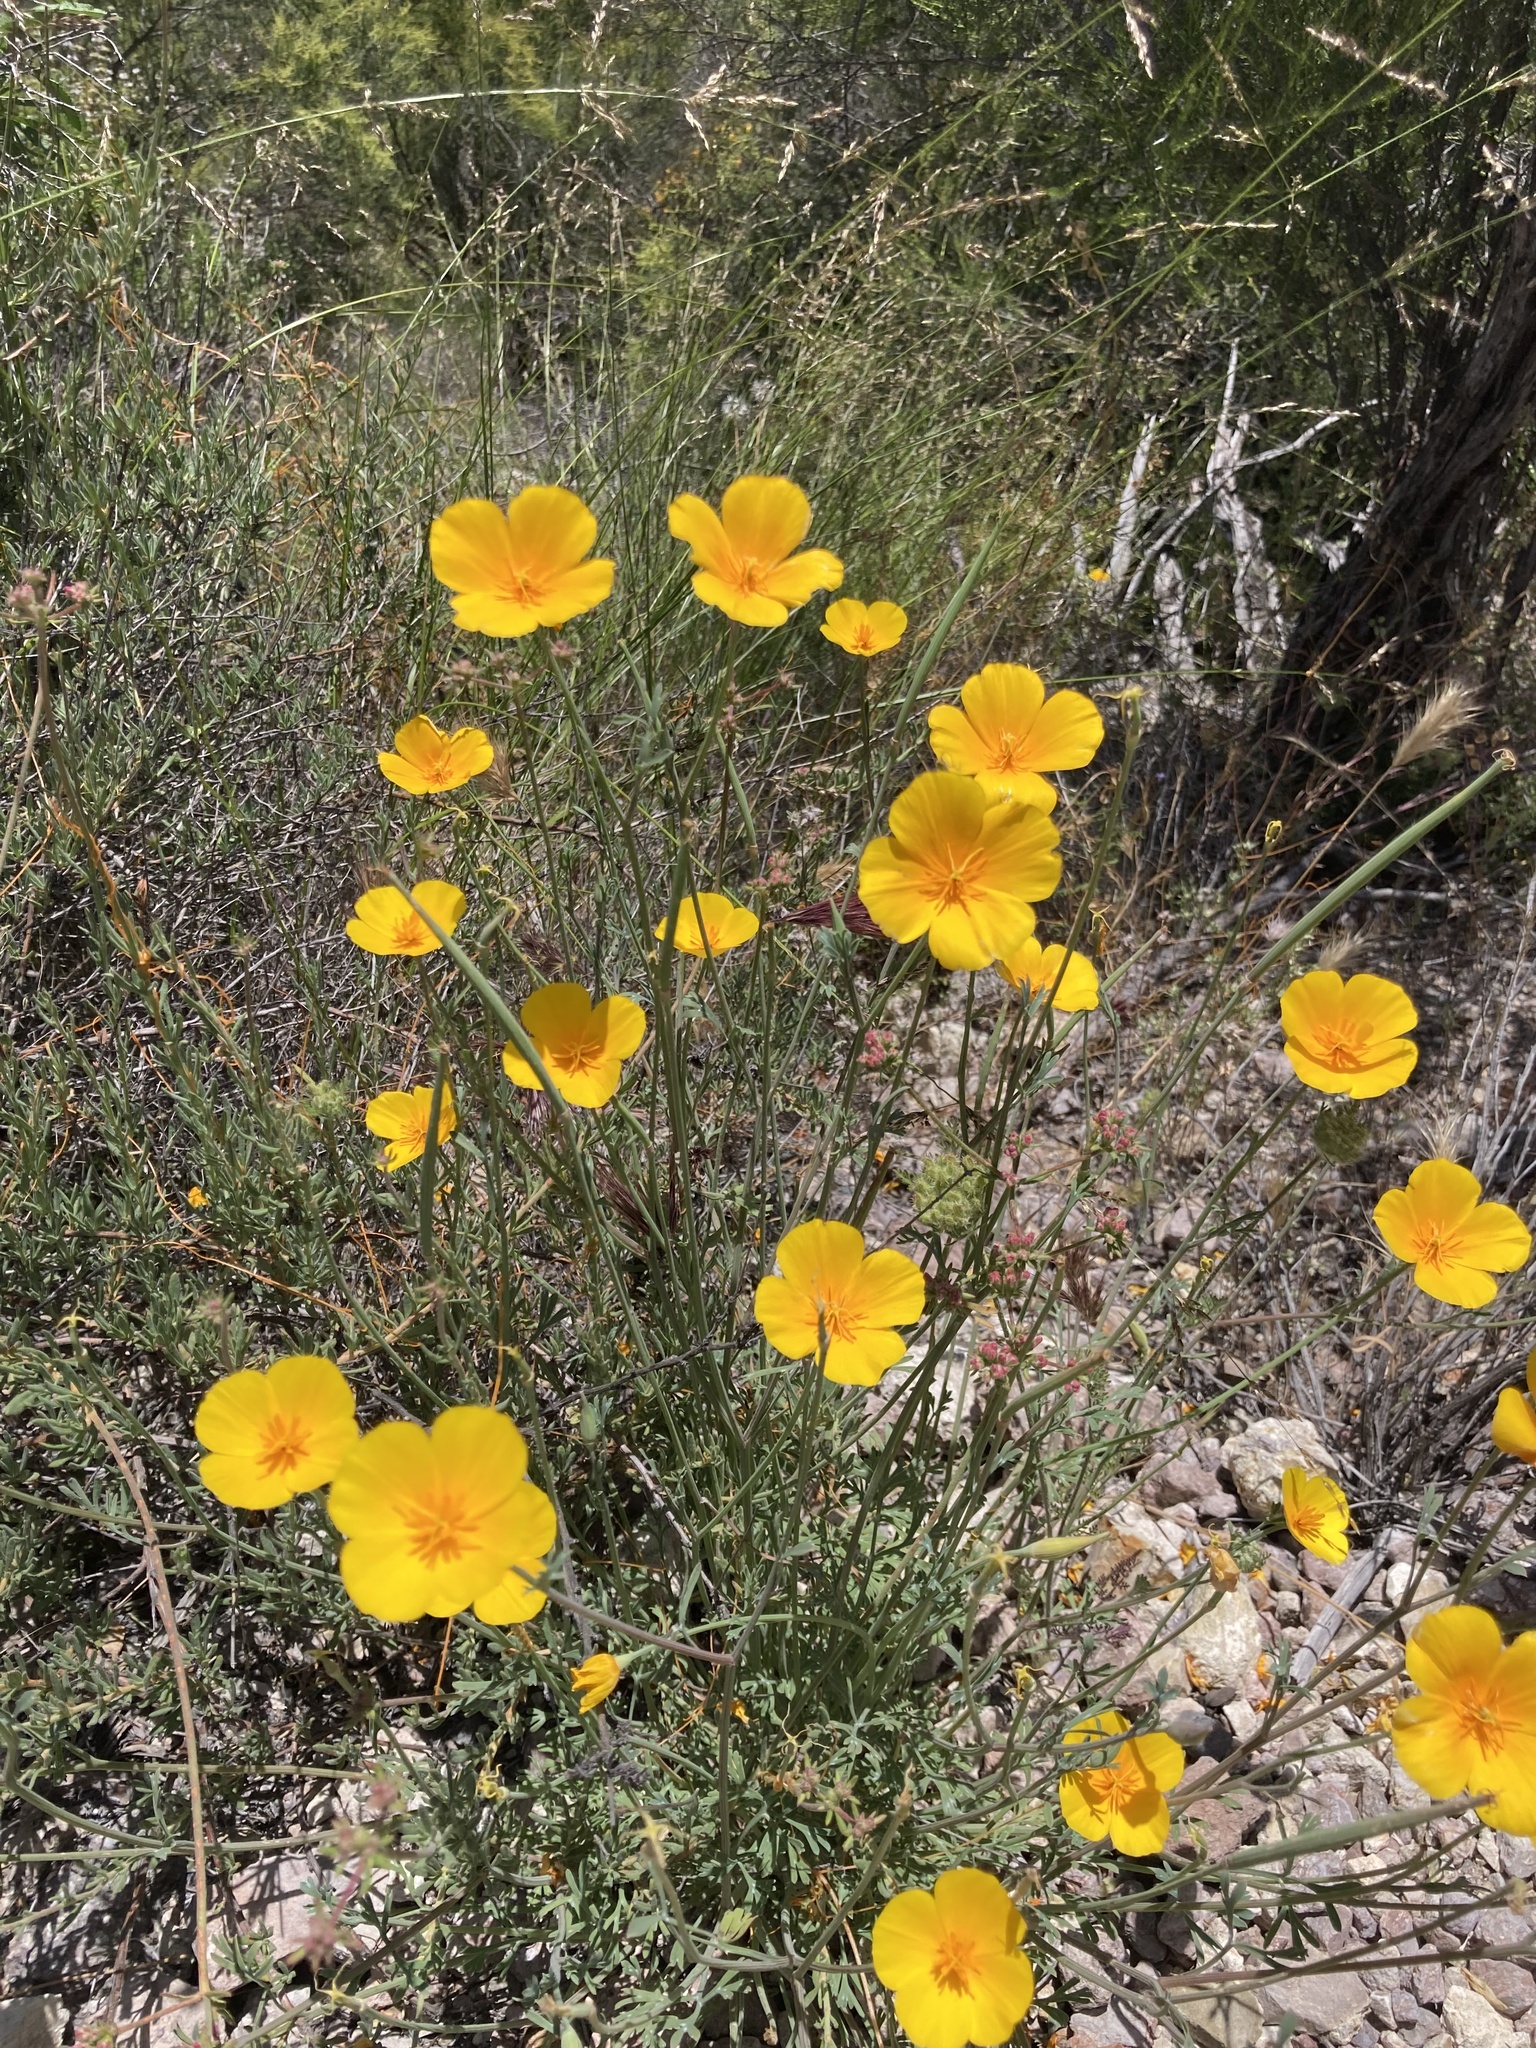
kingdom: Plantae
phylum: Tracheophyta
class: Magnoliopsida
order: Ranunculales
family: Papaveraceae
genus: Eschscholzia
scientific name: Eschscholzia caespitosa
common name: Tufted california-poppy
